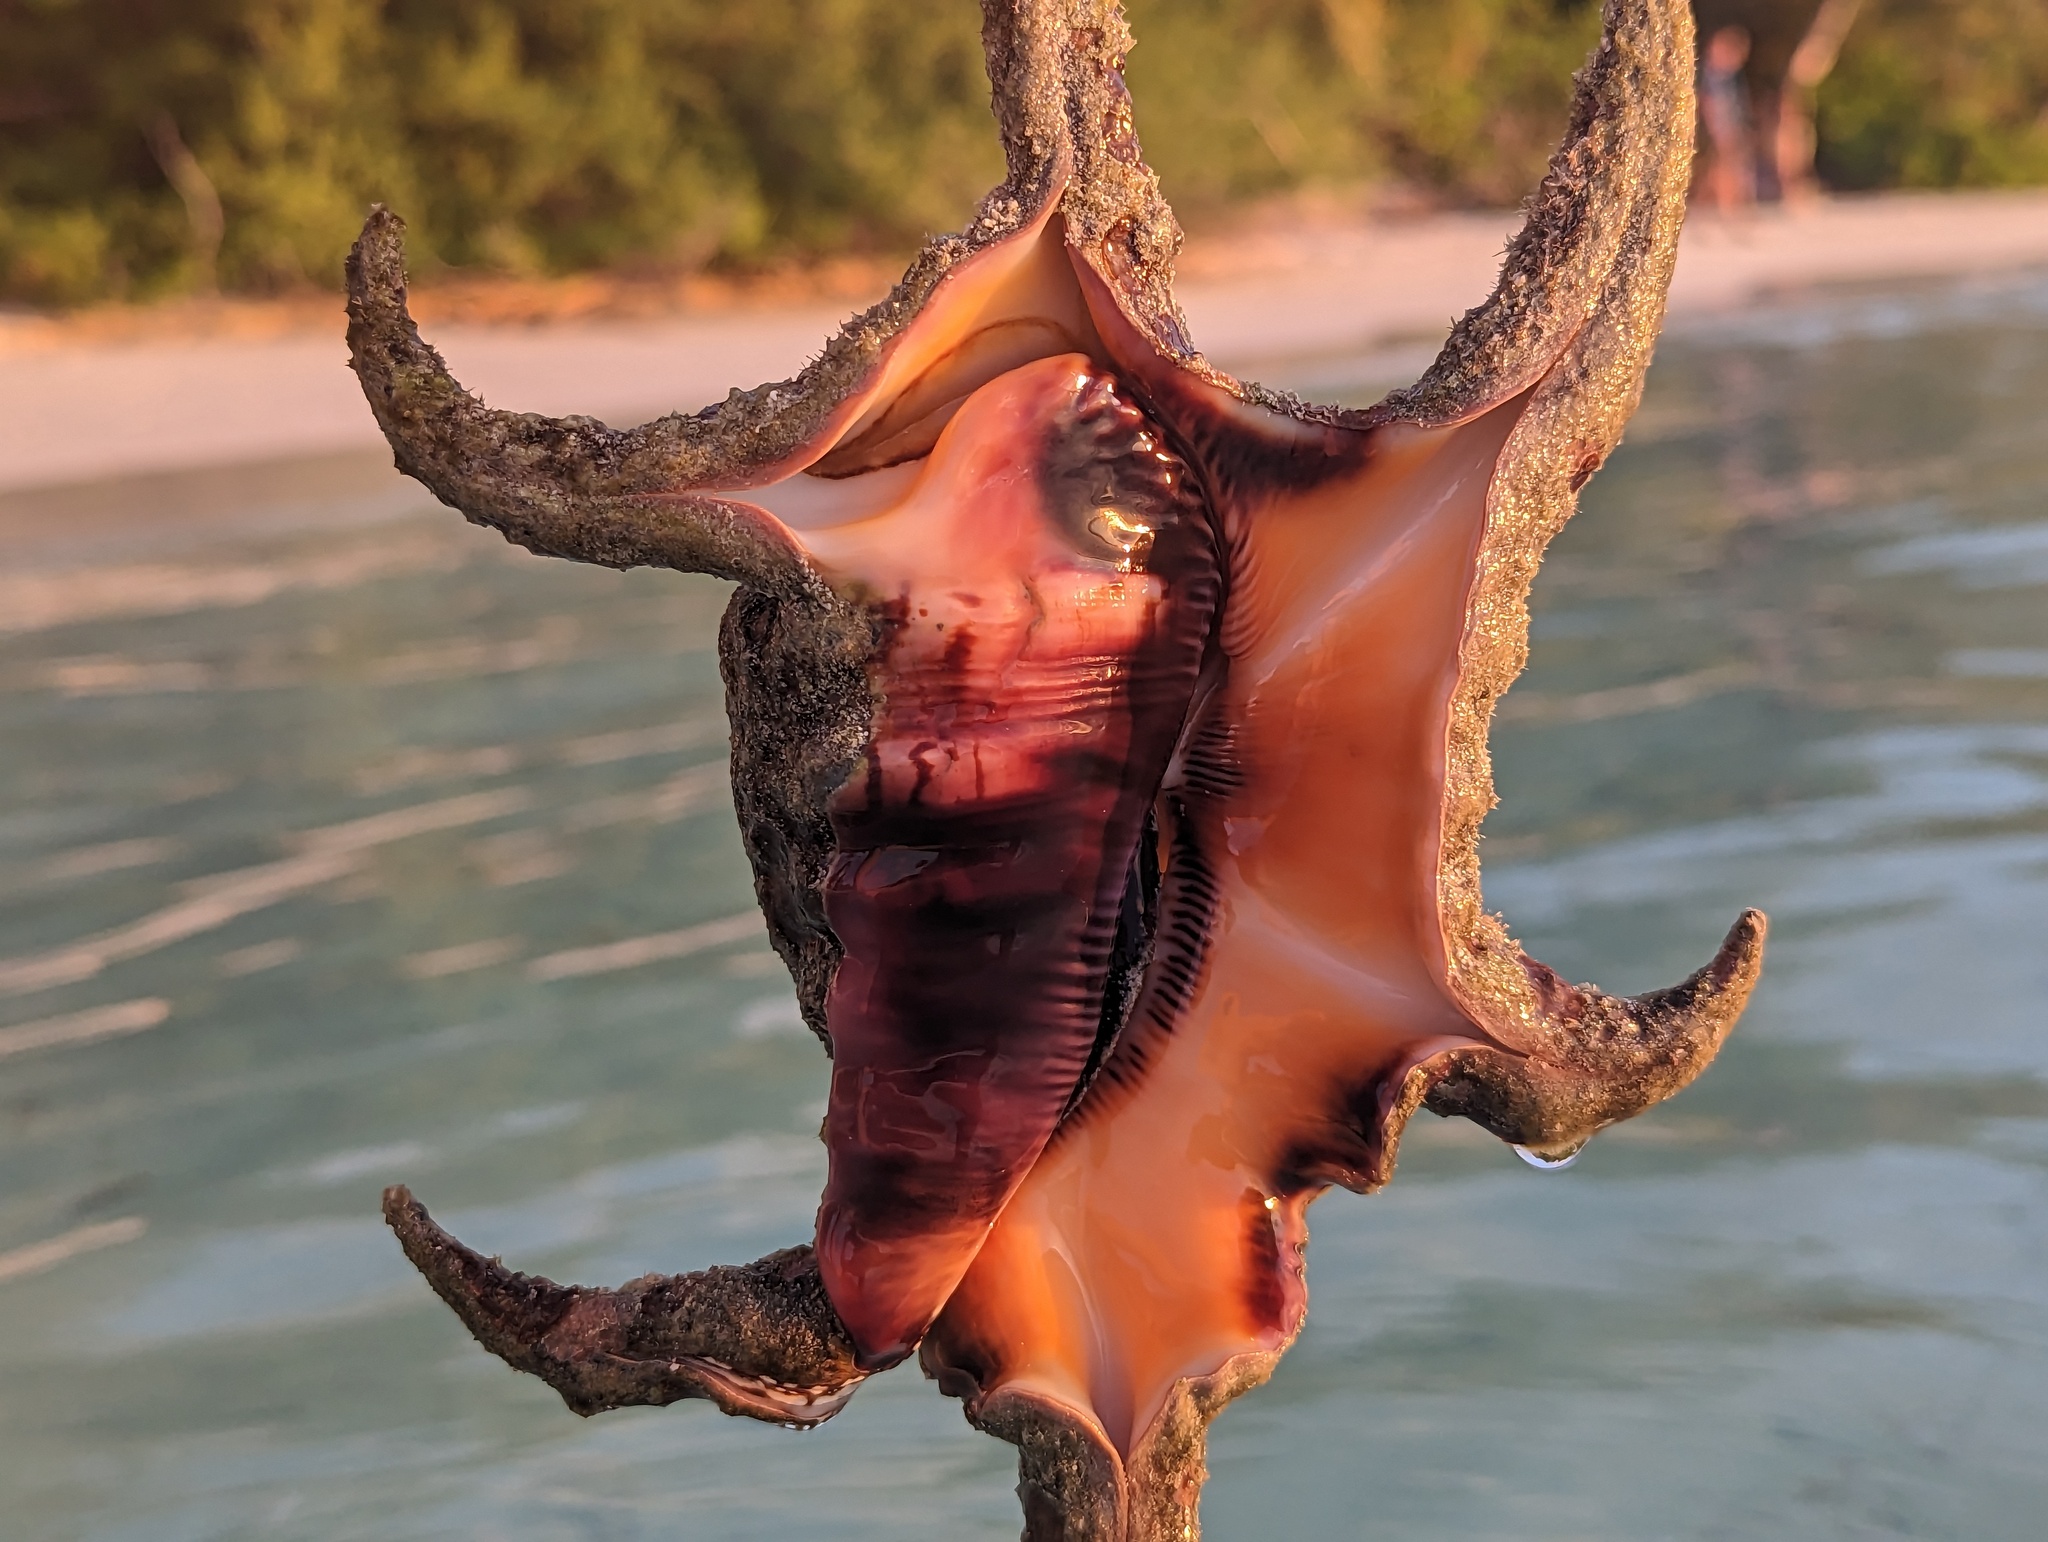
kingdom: Animalia
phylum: Mollusca
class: Gastropoda
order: Littorinimorpha
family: Strombidae
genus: Harpago
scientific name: Harpago chiragra
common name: Chiragra spider conch
